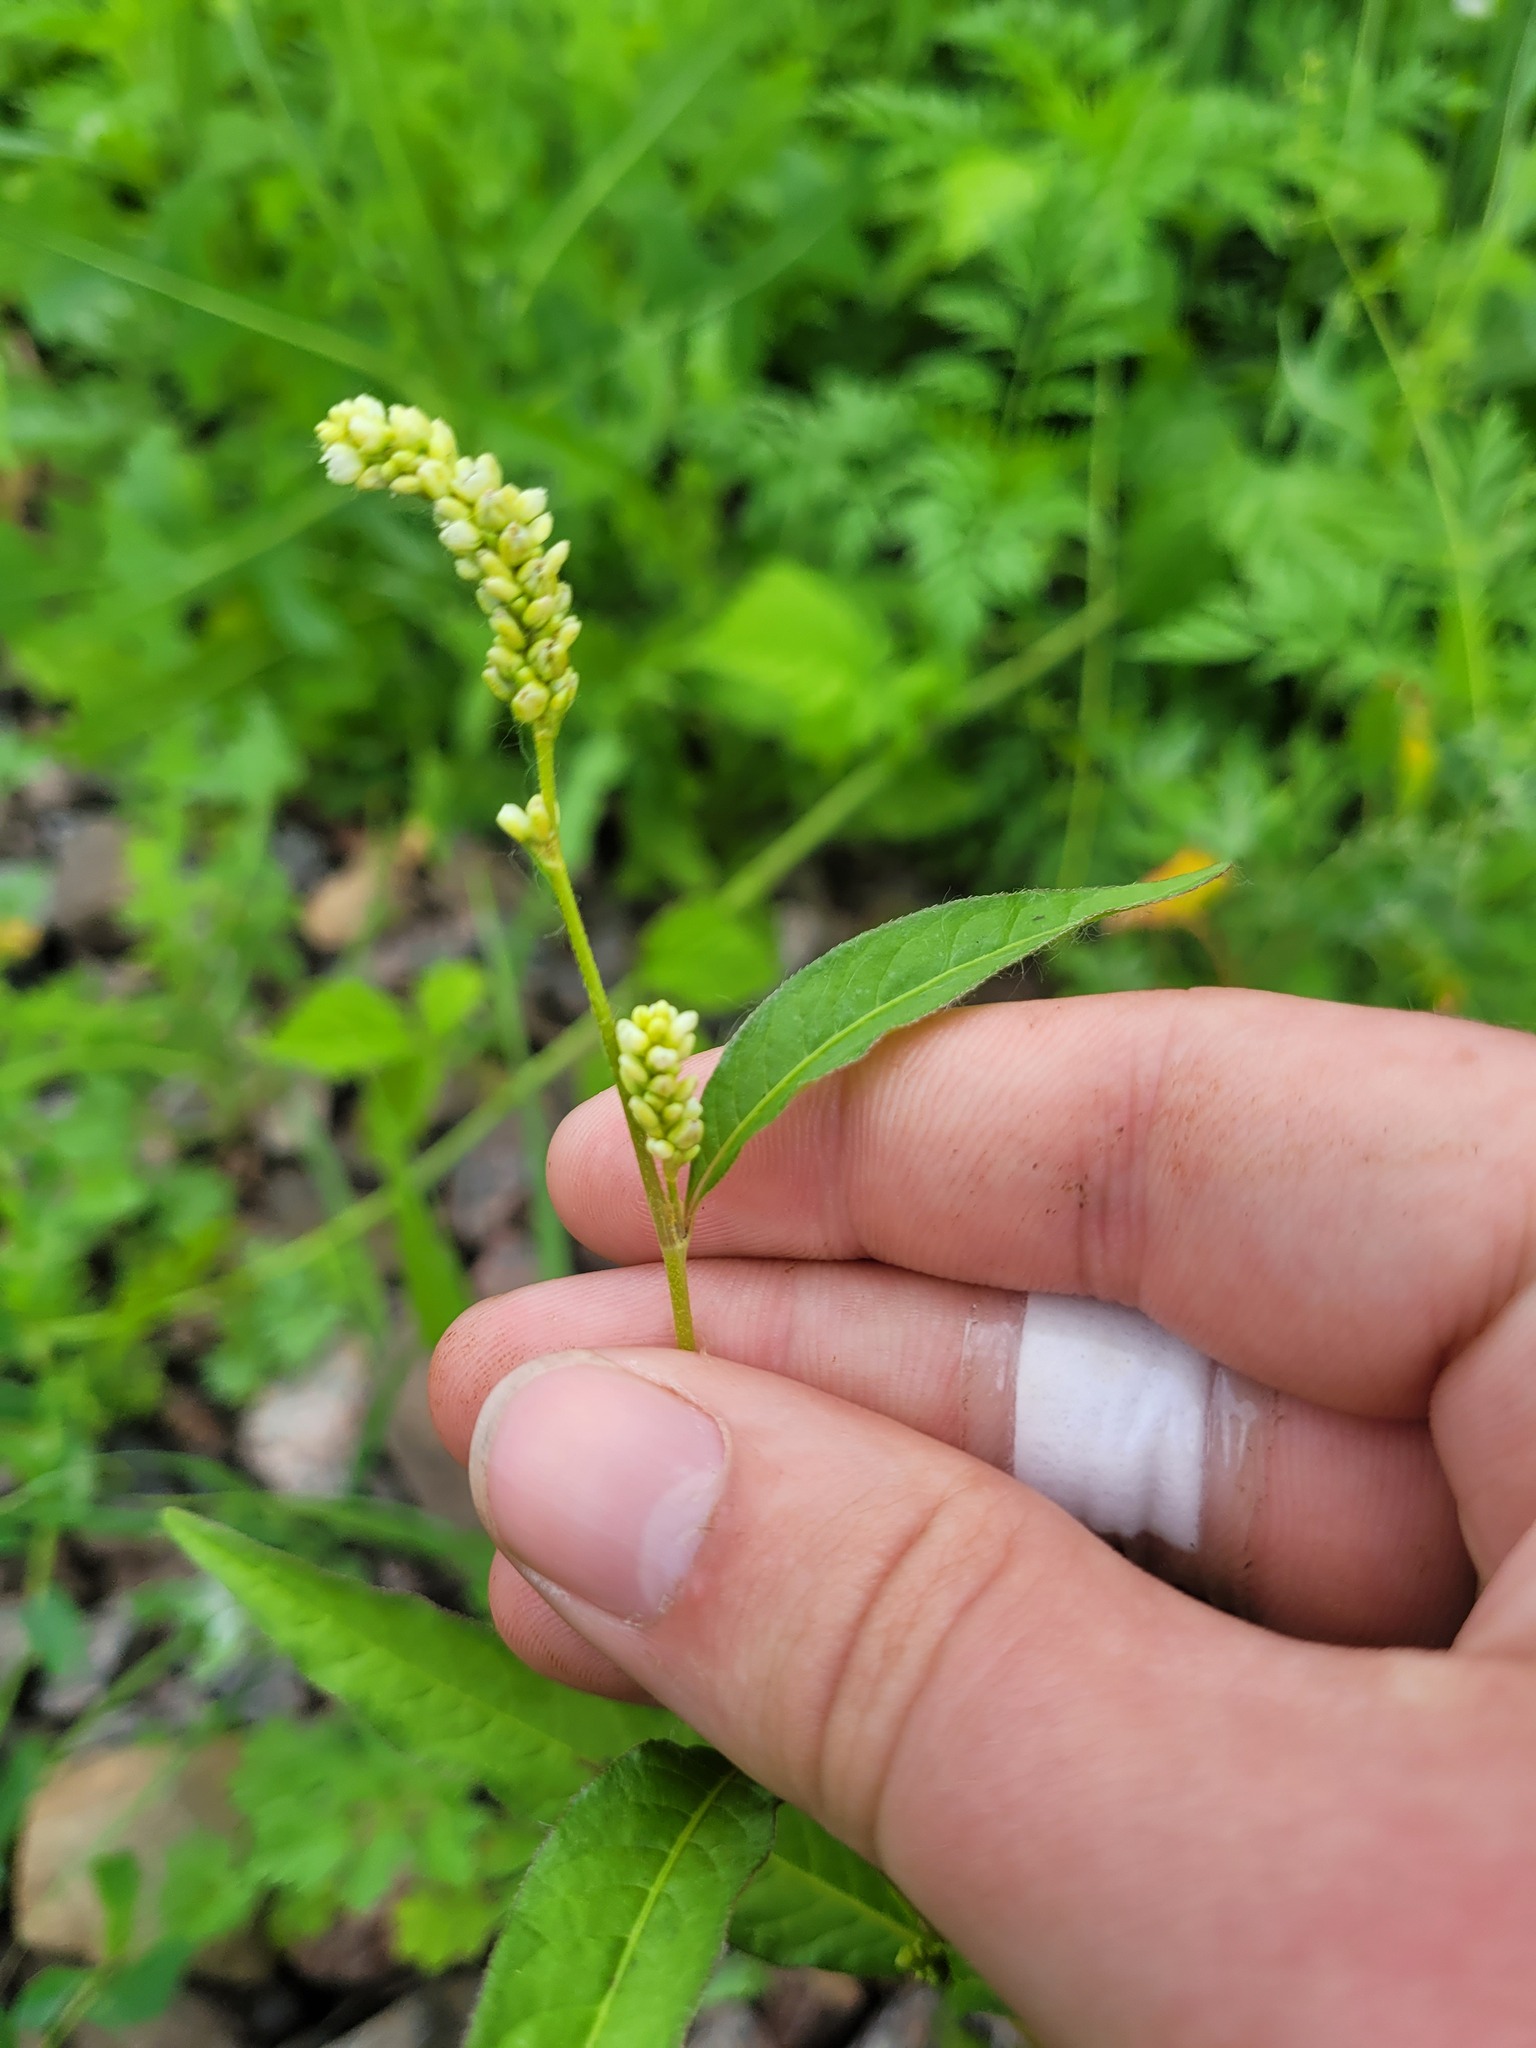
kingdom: Plantae
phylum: Tracheophyta
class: Magnoliopsida
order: Caryophyllales
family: Polygonaceae
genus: Persicaria
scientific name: Persicaria lapathifolia
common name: Curlytop knotweed
